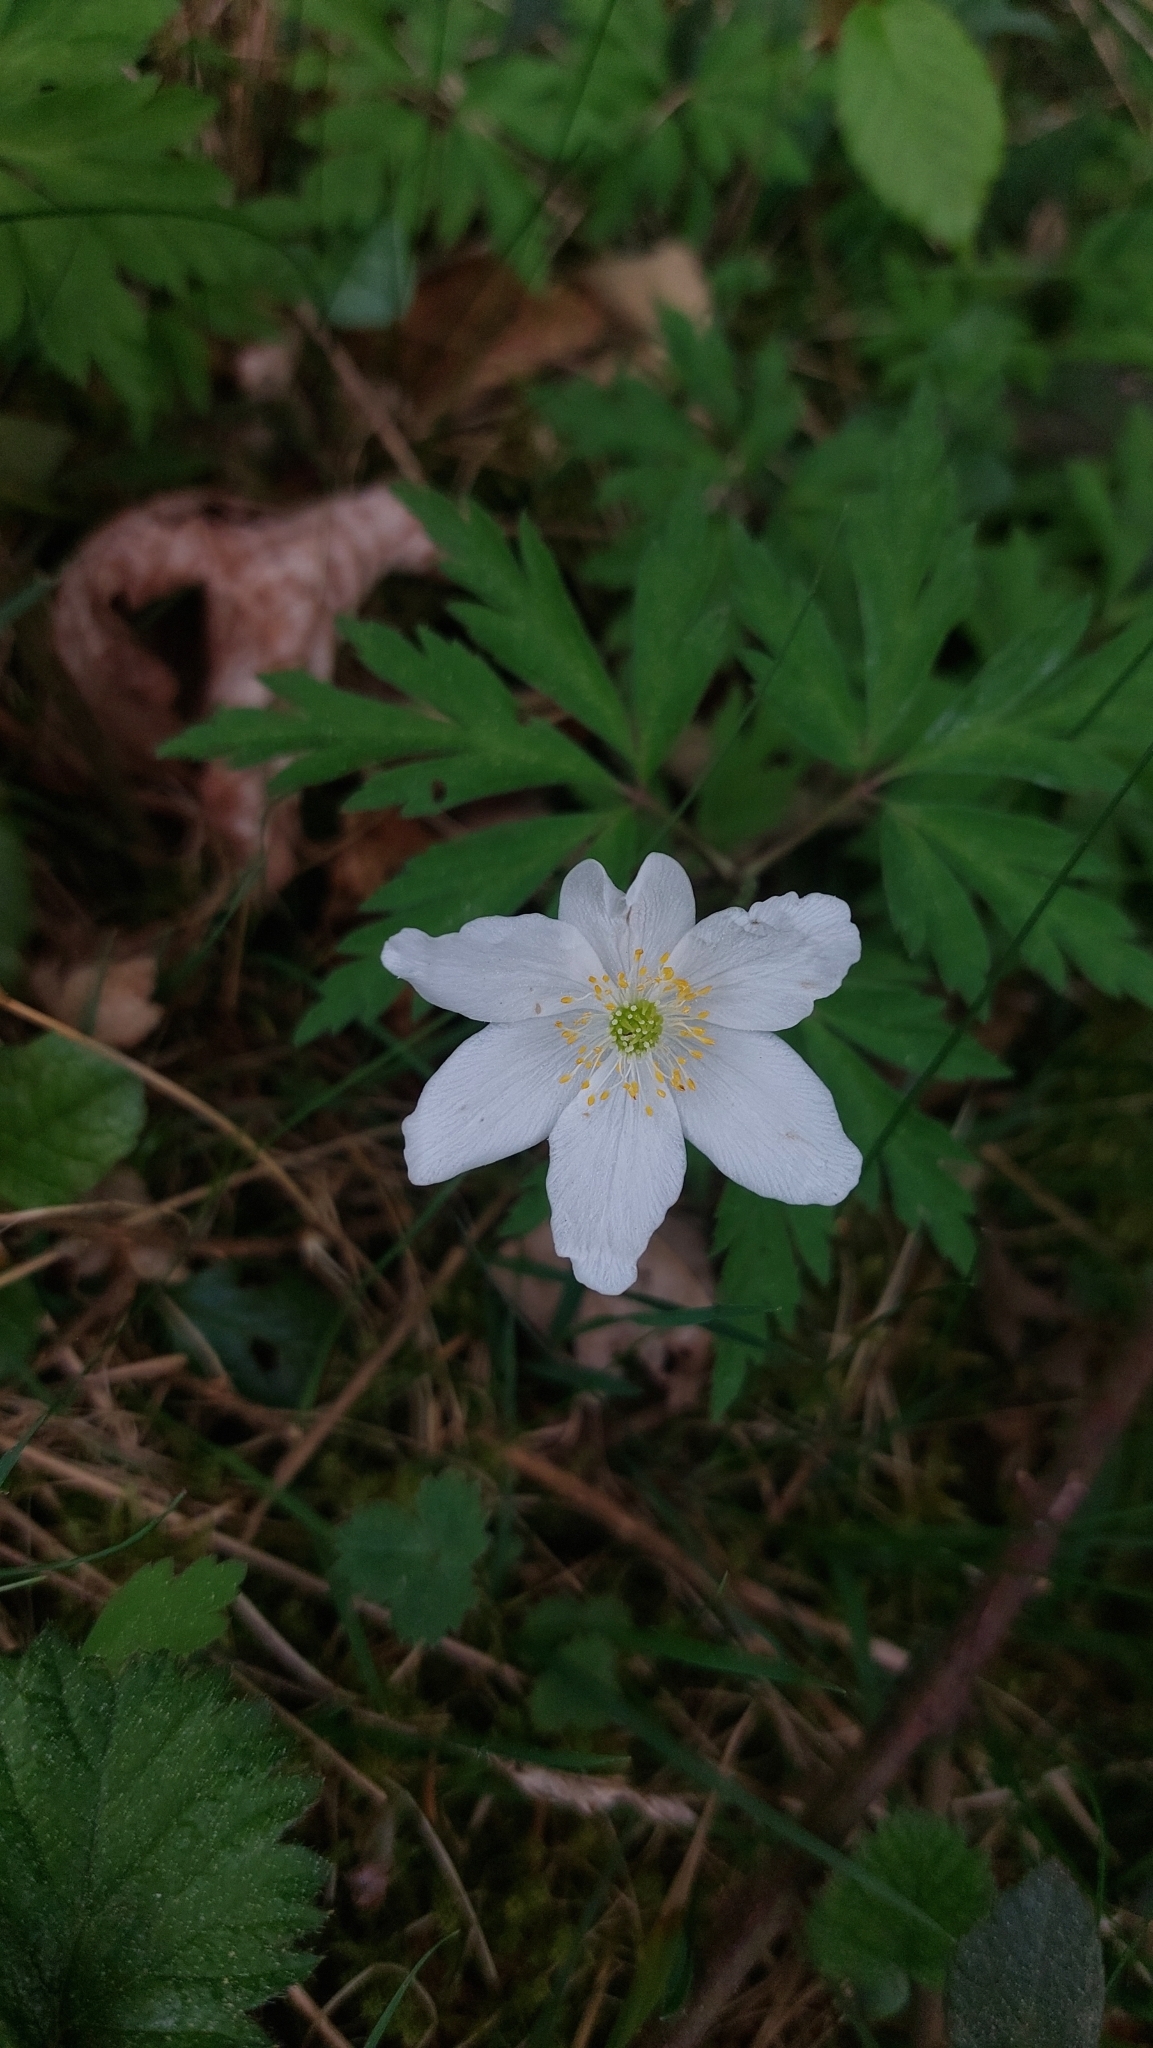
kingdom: Plantae
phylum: Tracheophyta
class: Magnoliopsida
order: Ranunculales
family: Ranunculaceae
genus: Anemone
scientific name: Anemone nemorosa
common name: Wood anemone
